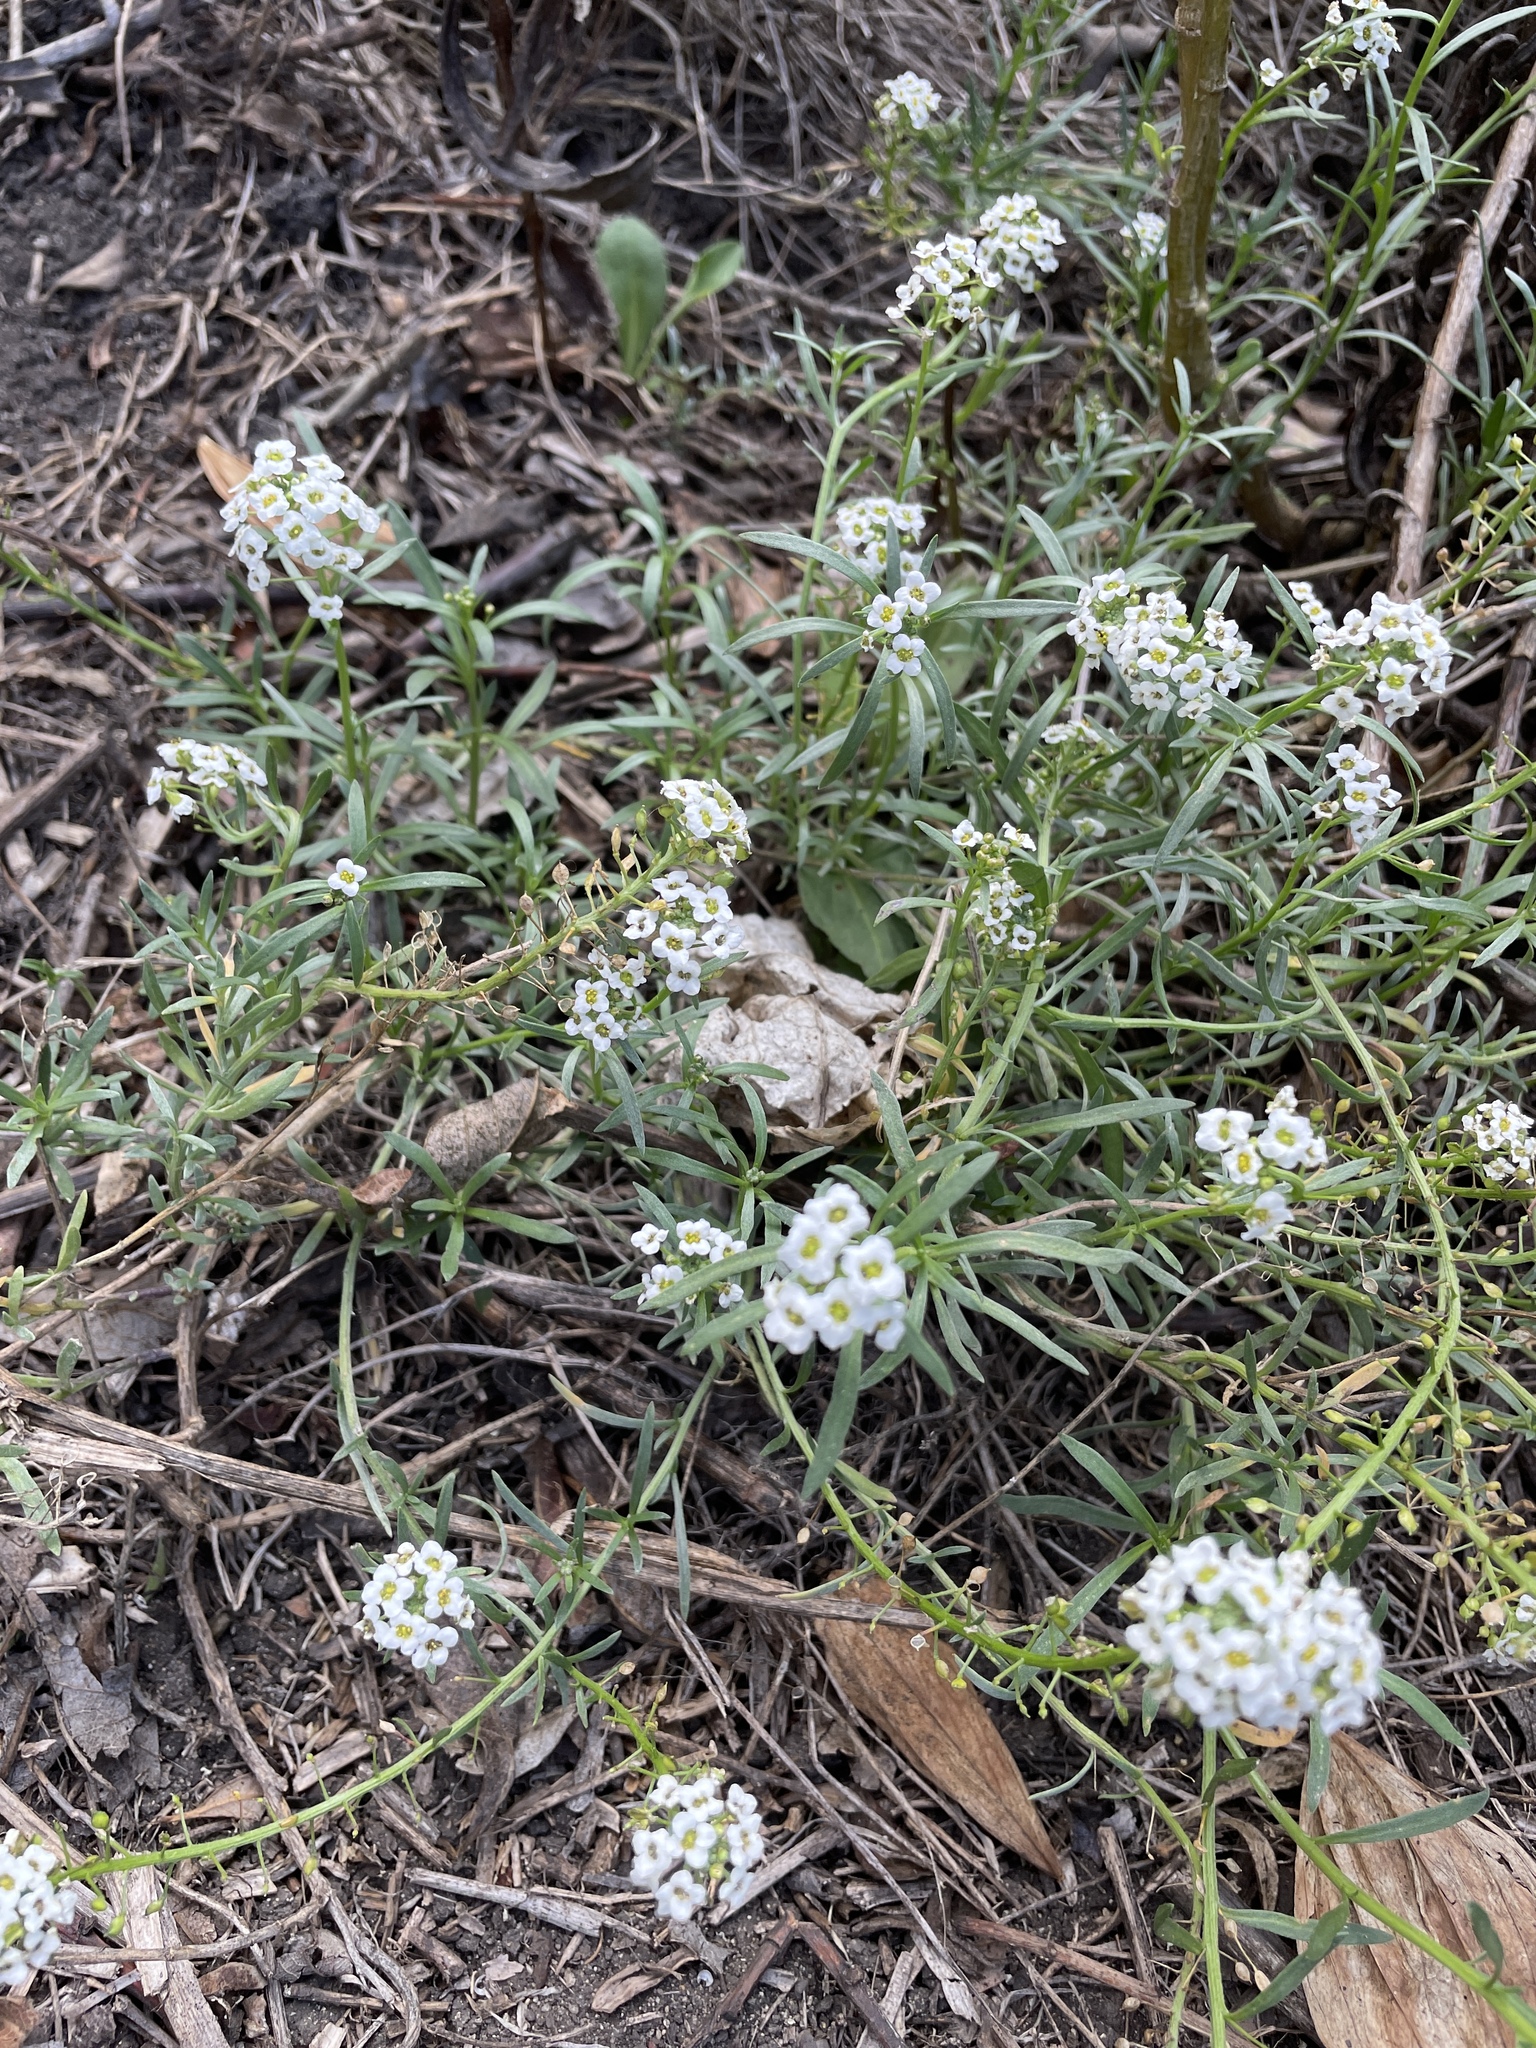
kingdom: Plantae
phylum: Tracheophyta
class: Magnoliopsida
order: Brassicales
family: Brassicaceae
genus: Lobularia
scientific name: Lobularia maritima
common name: Sweet alison
